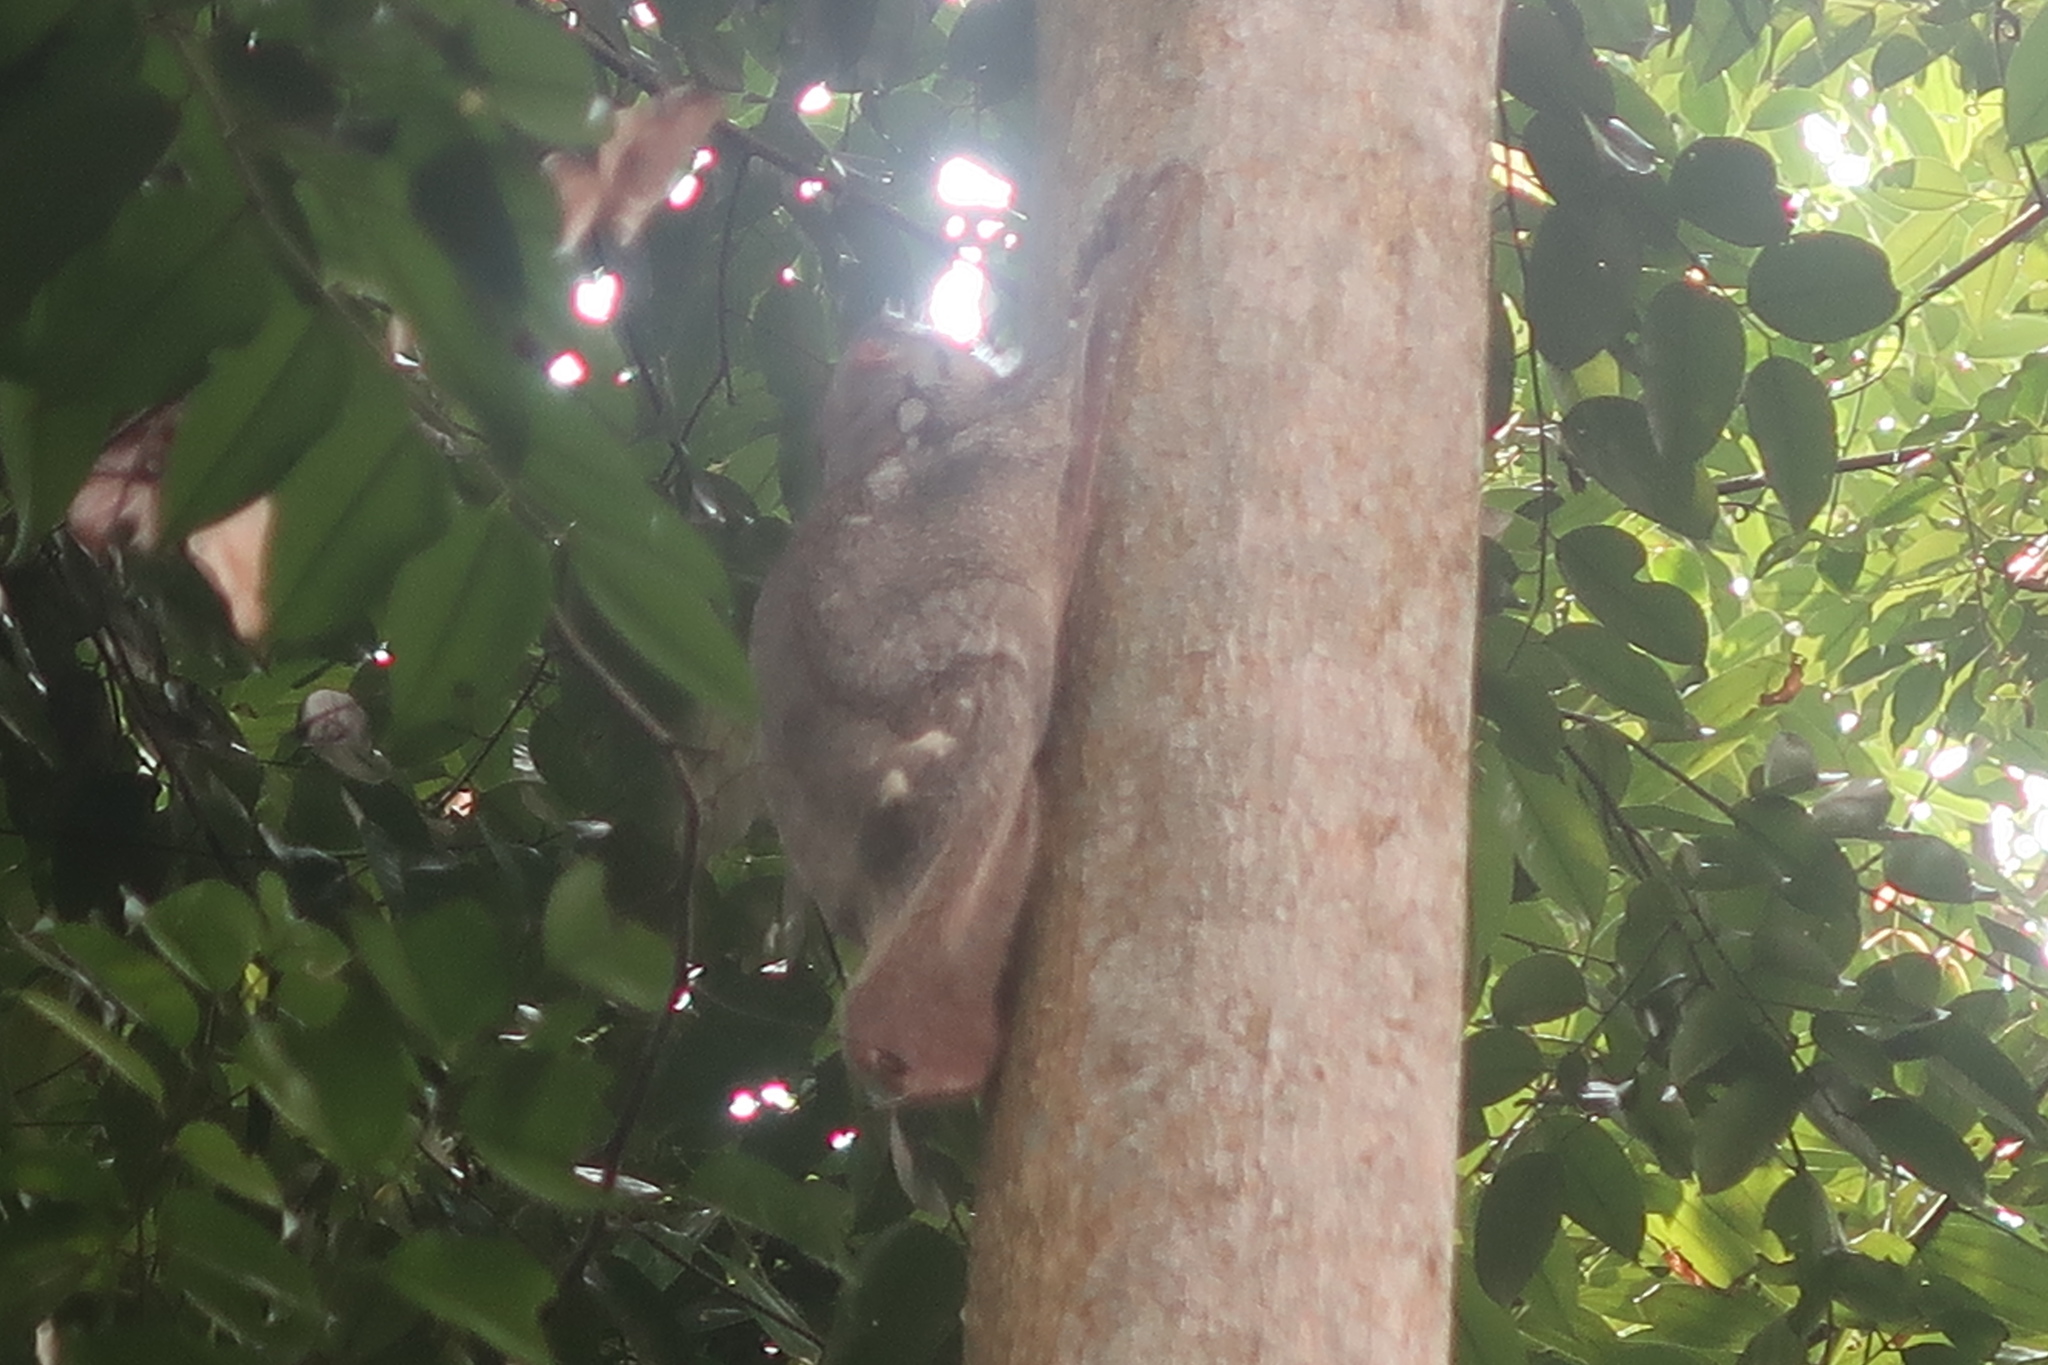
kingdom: Animalia
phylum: Chordata
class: Mammalia
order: Dermoptera
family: Cynocephalidae
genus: Galeopterus
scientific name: Galeopterus variegatus
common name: Sunda flying lemur
